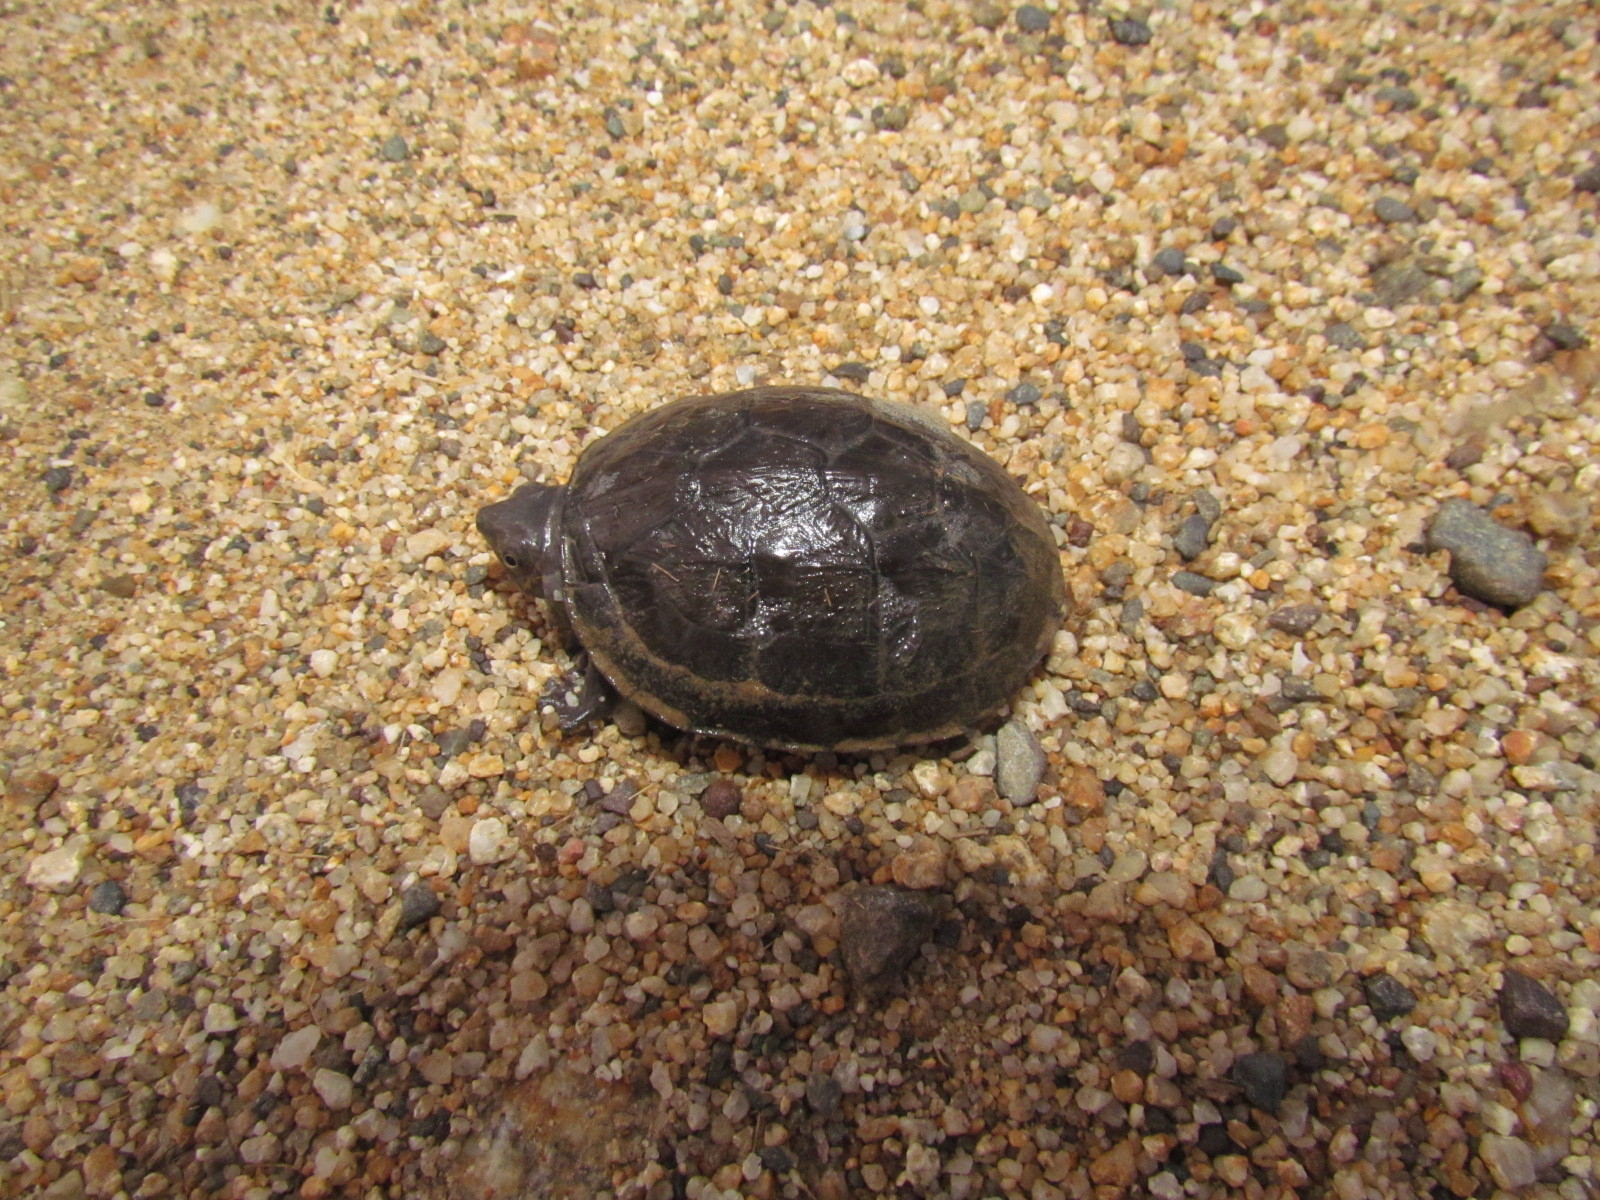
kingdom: Animalia
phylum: Chordata
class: Testudines
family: Kinosternidae
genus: Kinosternon
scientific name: Kinosternon scorpioides
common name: Scorpion mud turtle
